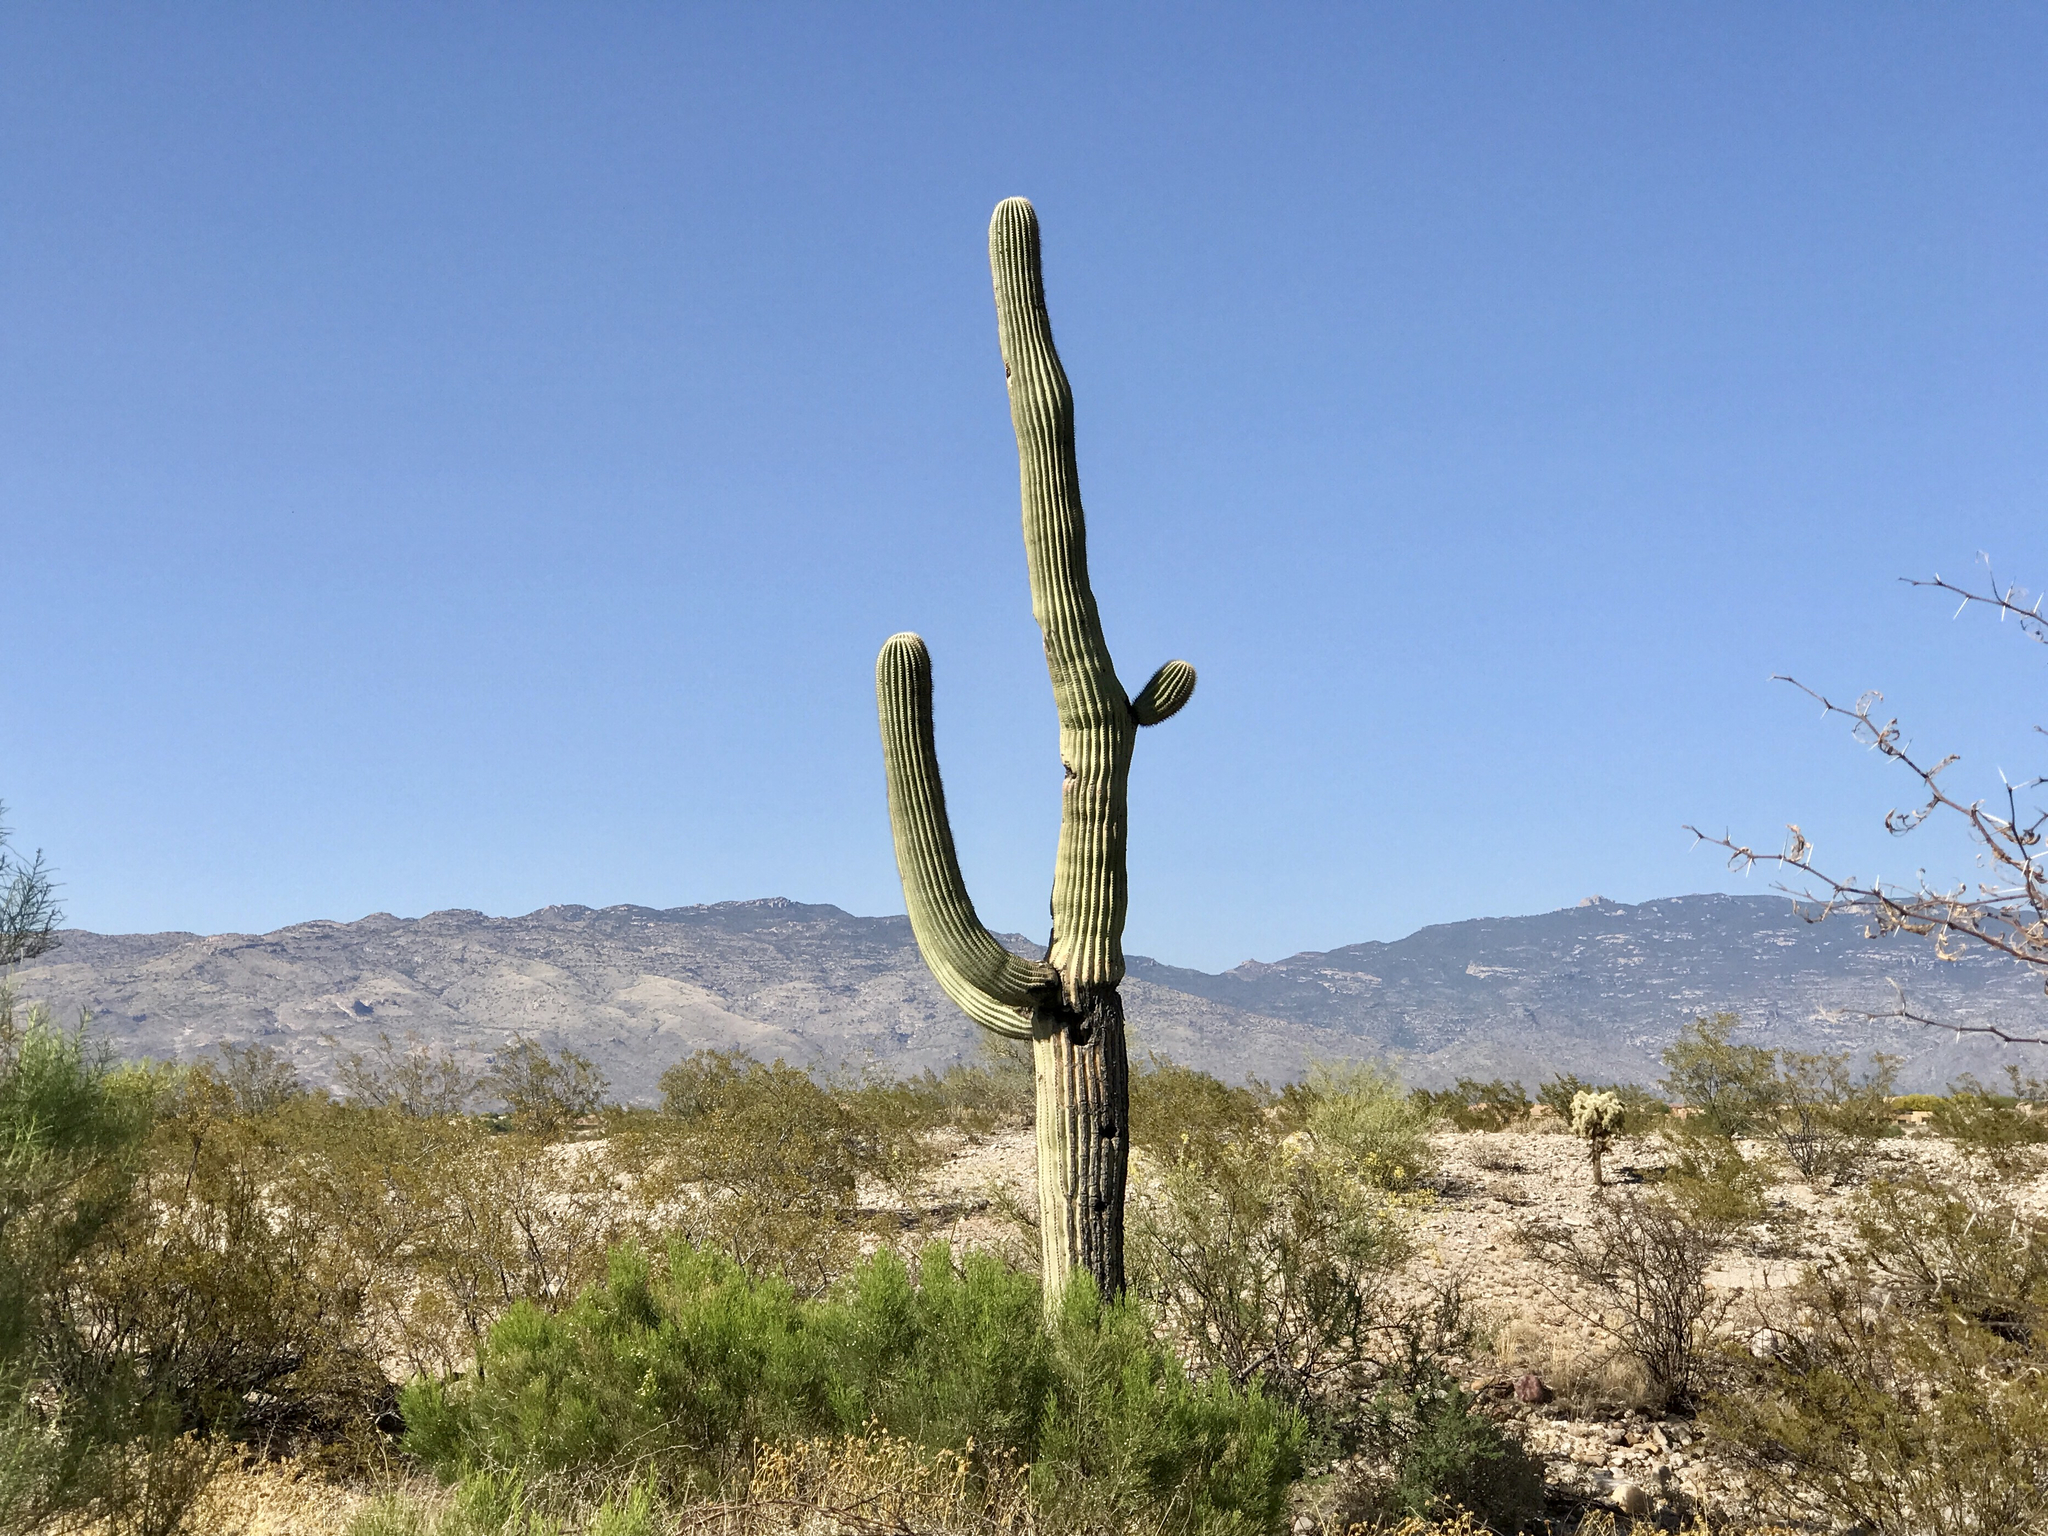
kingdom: Plantae
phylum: Tracheophyta
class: Magnoliopsida
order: Caryophyllales
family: Cactaceae
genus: Carnegiea
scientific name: Carnegiea gigantea
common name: Saguaro
